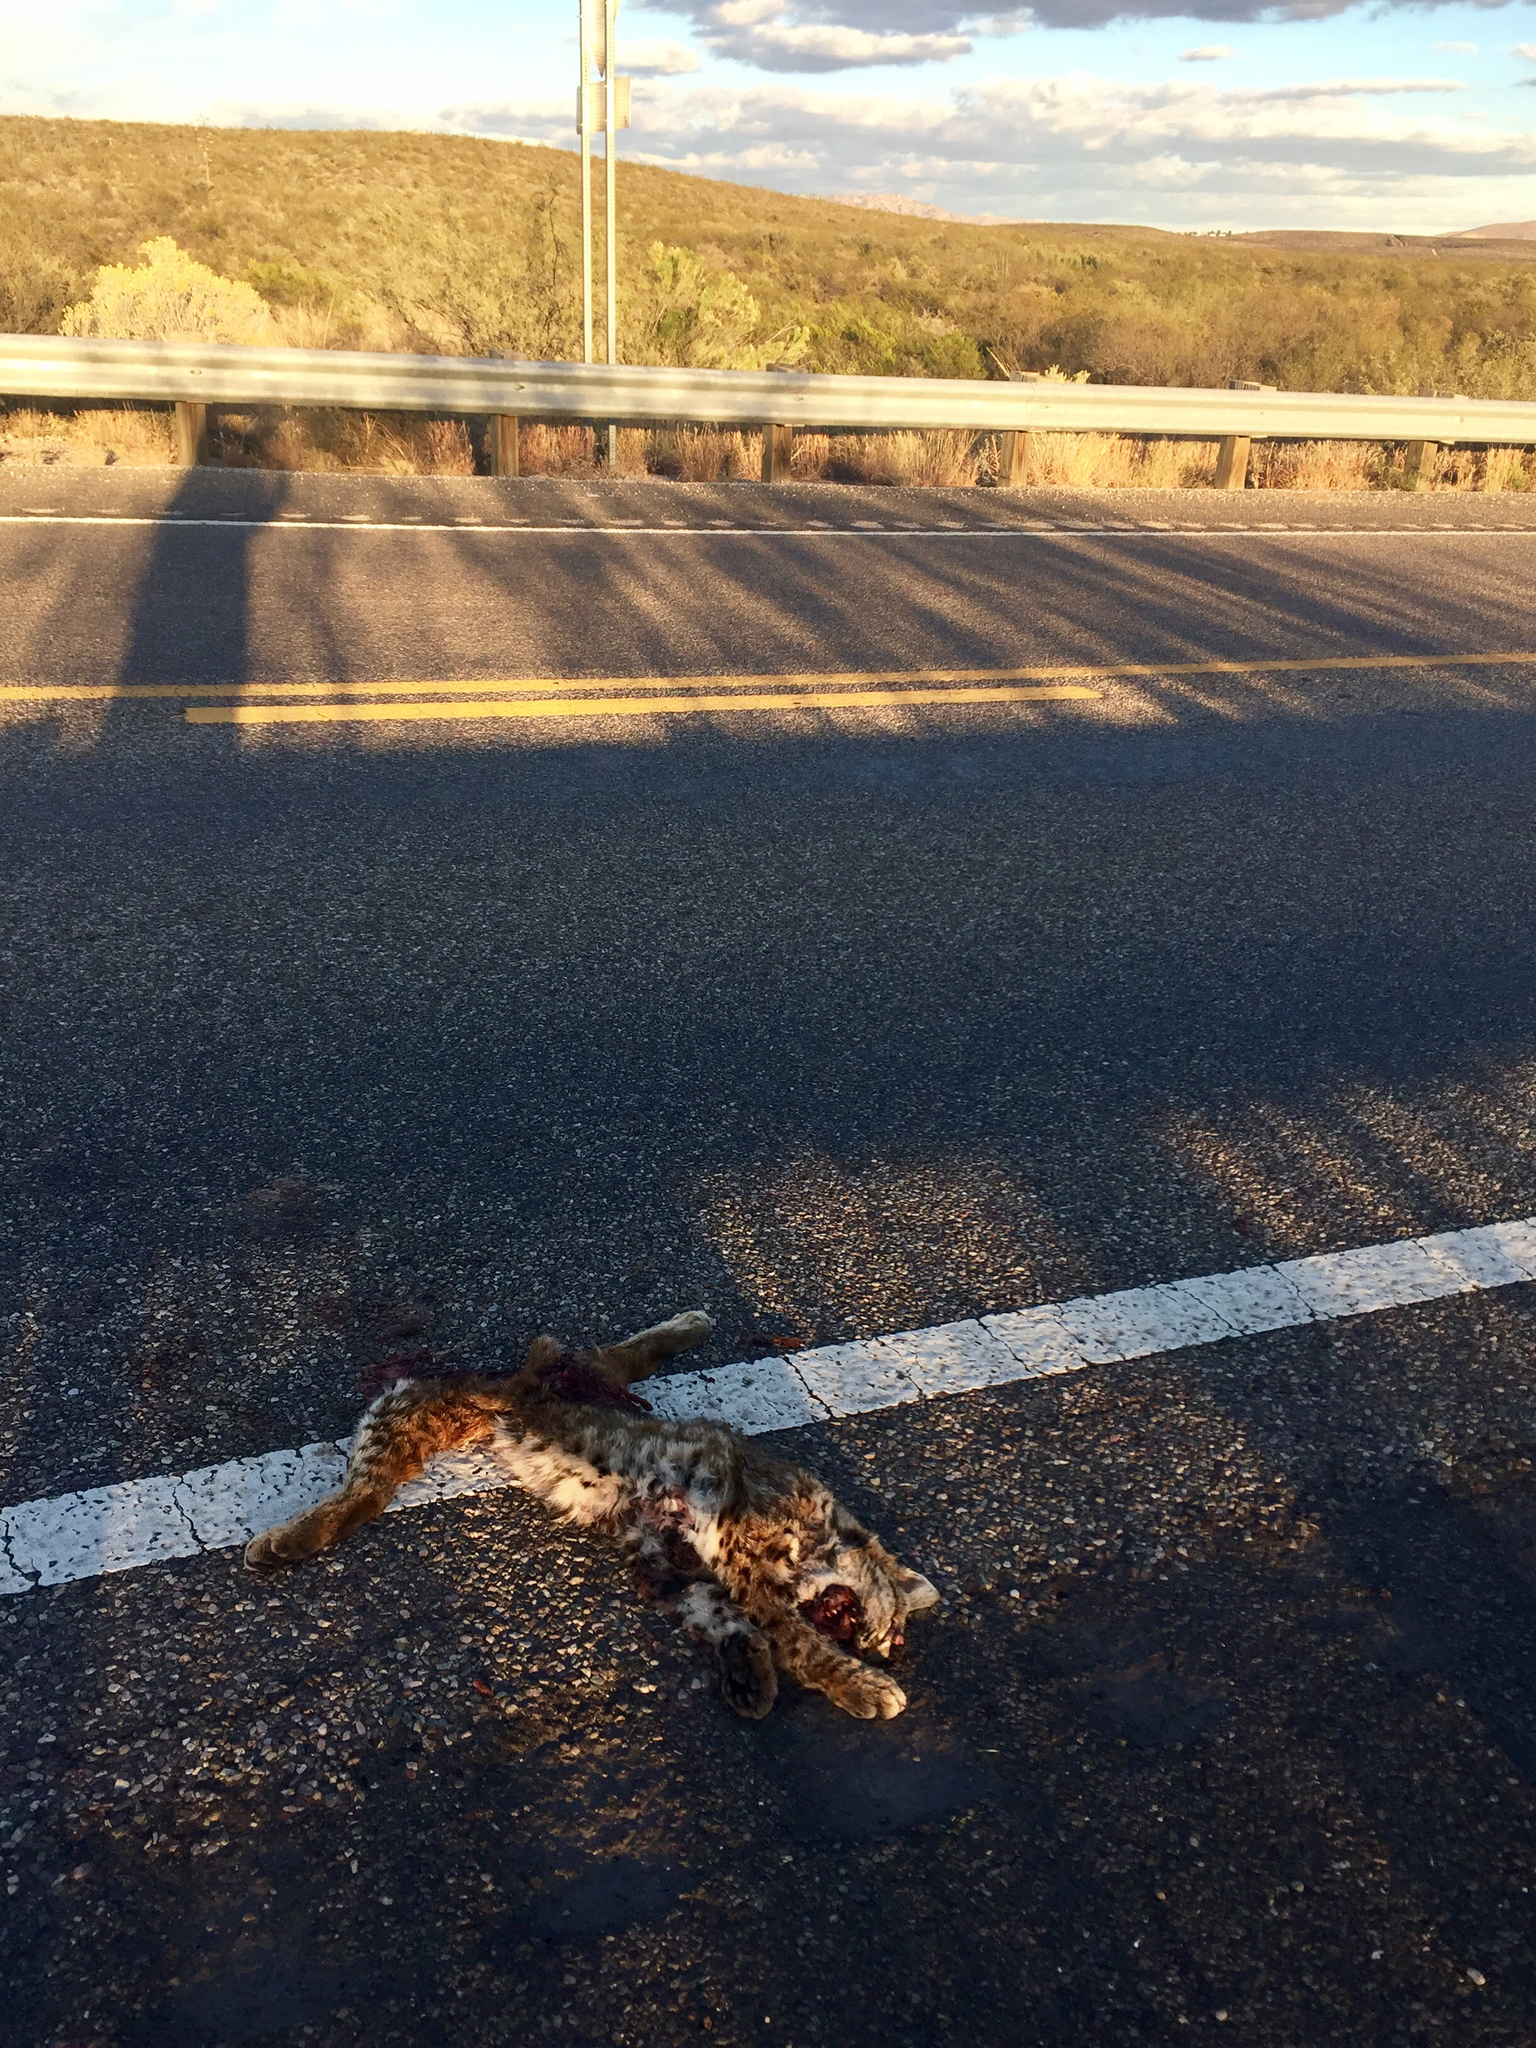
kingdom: Animalia
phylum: Chordata
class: Mammalia
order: Carnivora
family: Felidae
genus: Lynx
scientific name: Lynx rufus
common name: Bobcat
